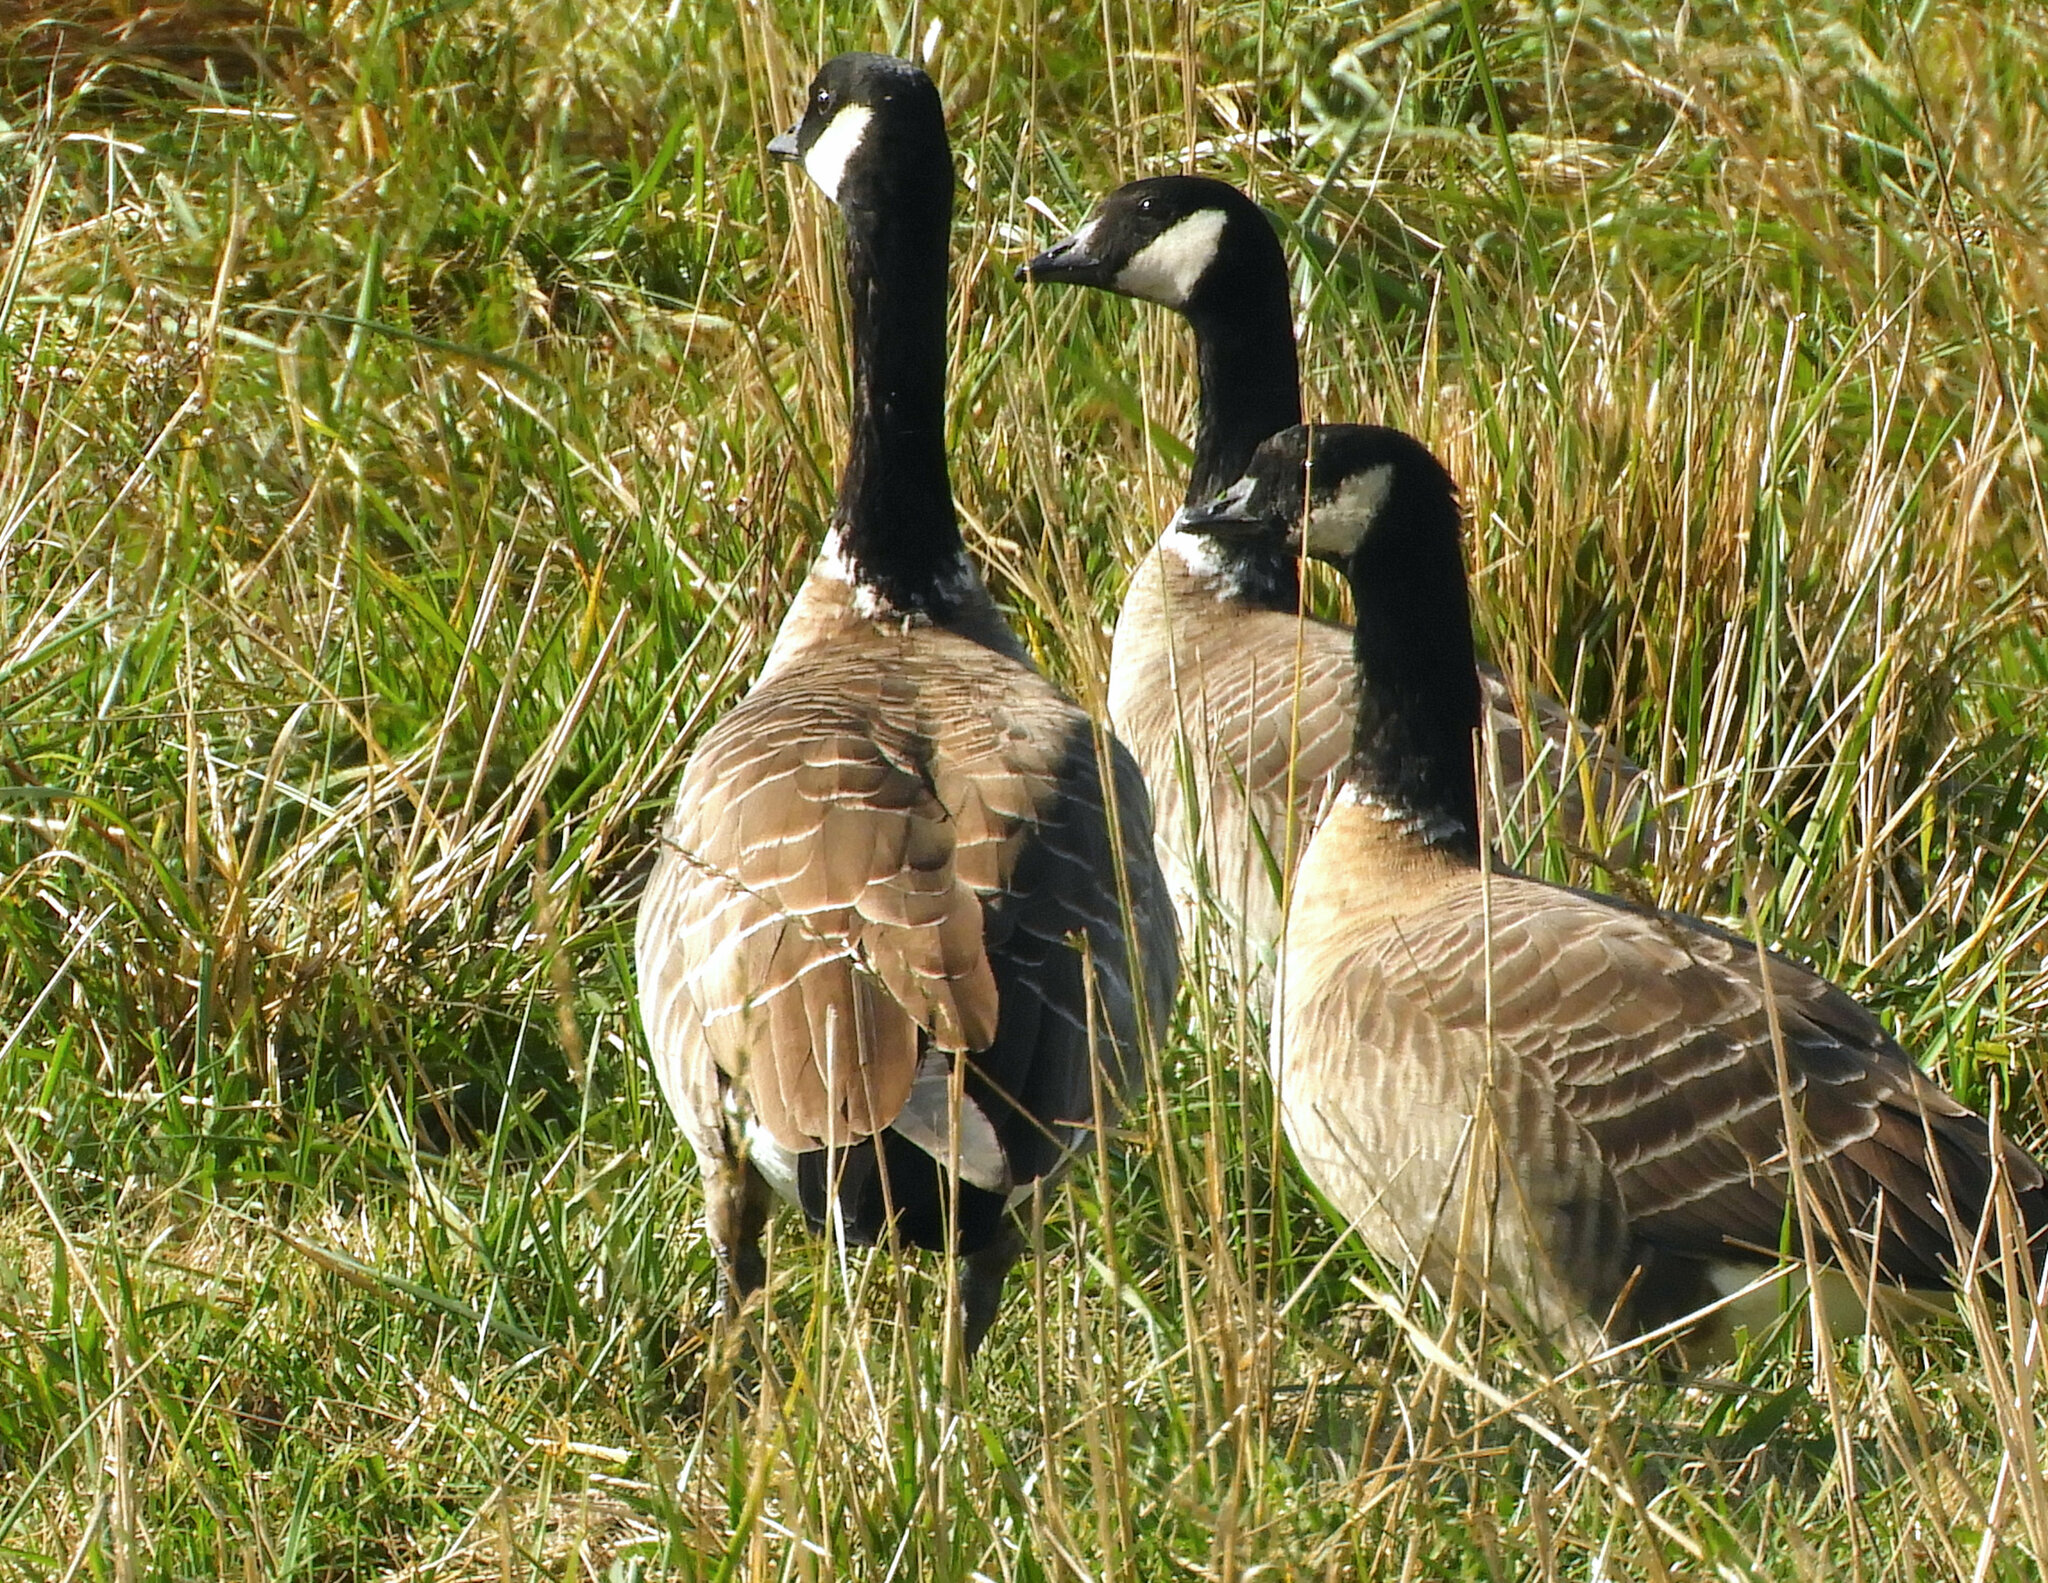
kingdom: Animalia
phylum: Chordata
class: Aves
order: Anseriformes
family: Anatidae
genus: Branta
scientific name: Branta hutchinsii
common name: Cackling goose
